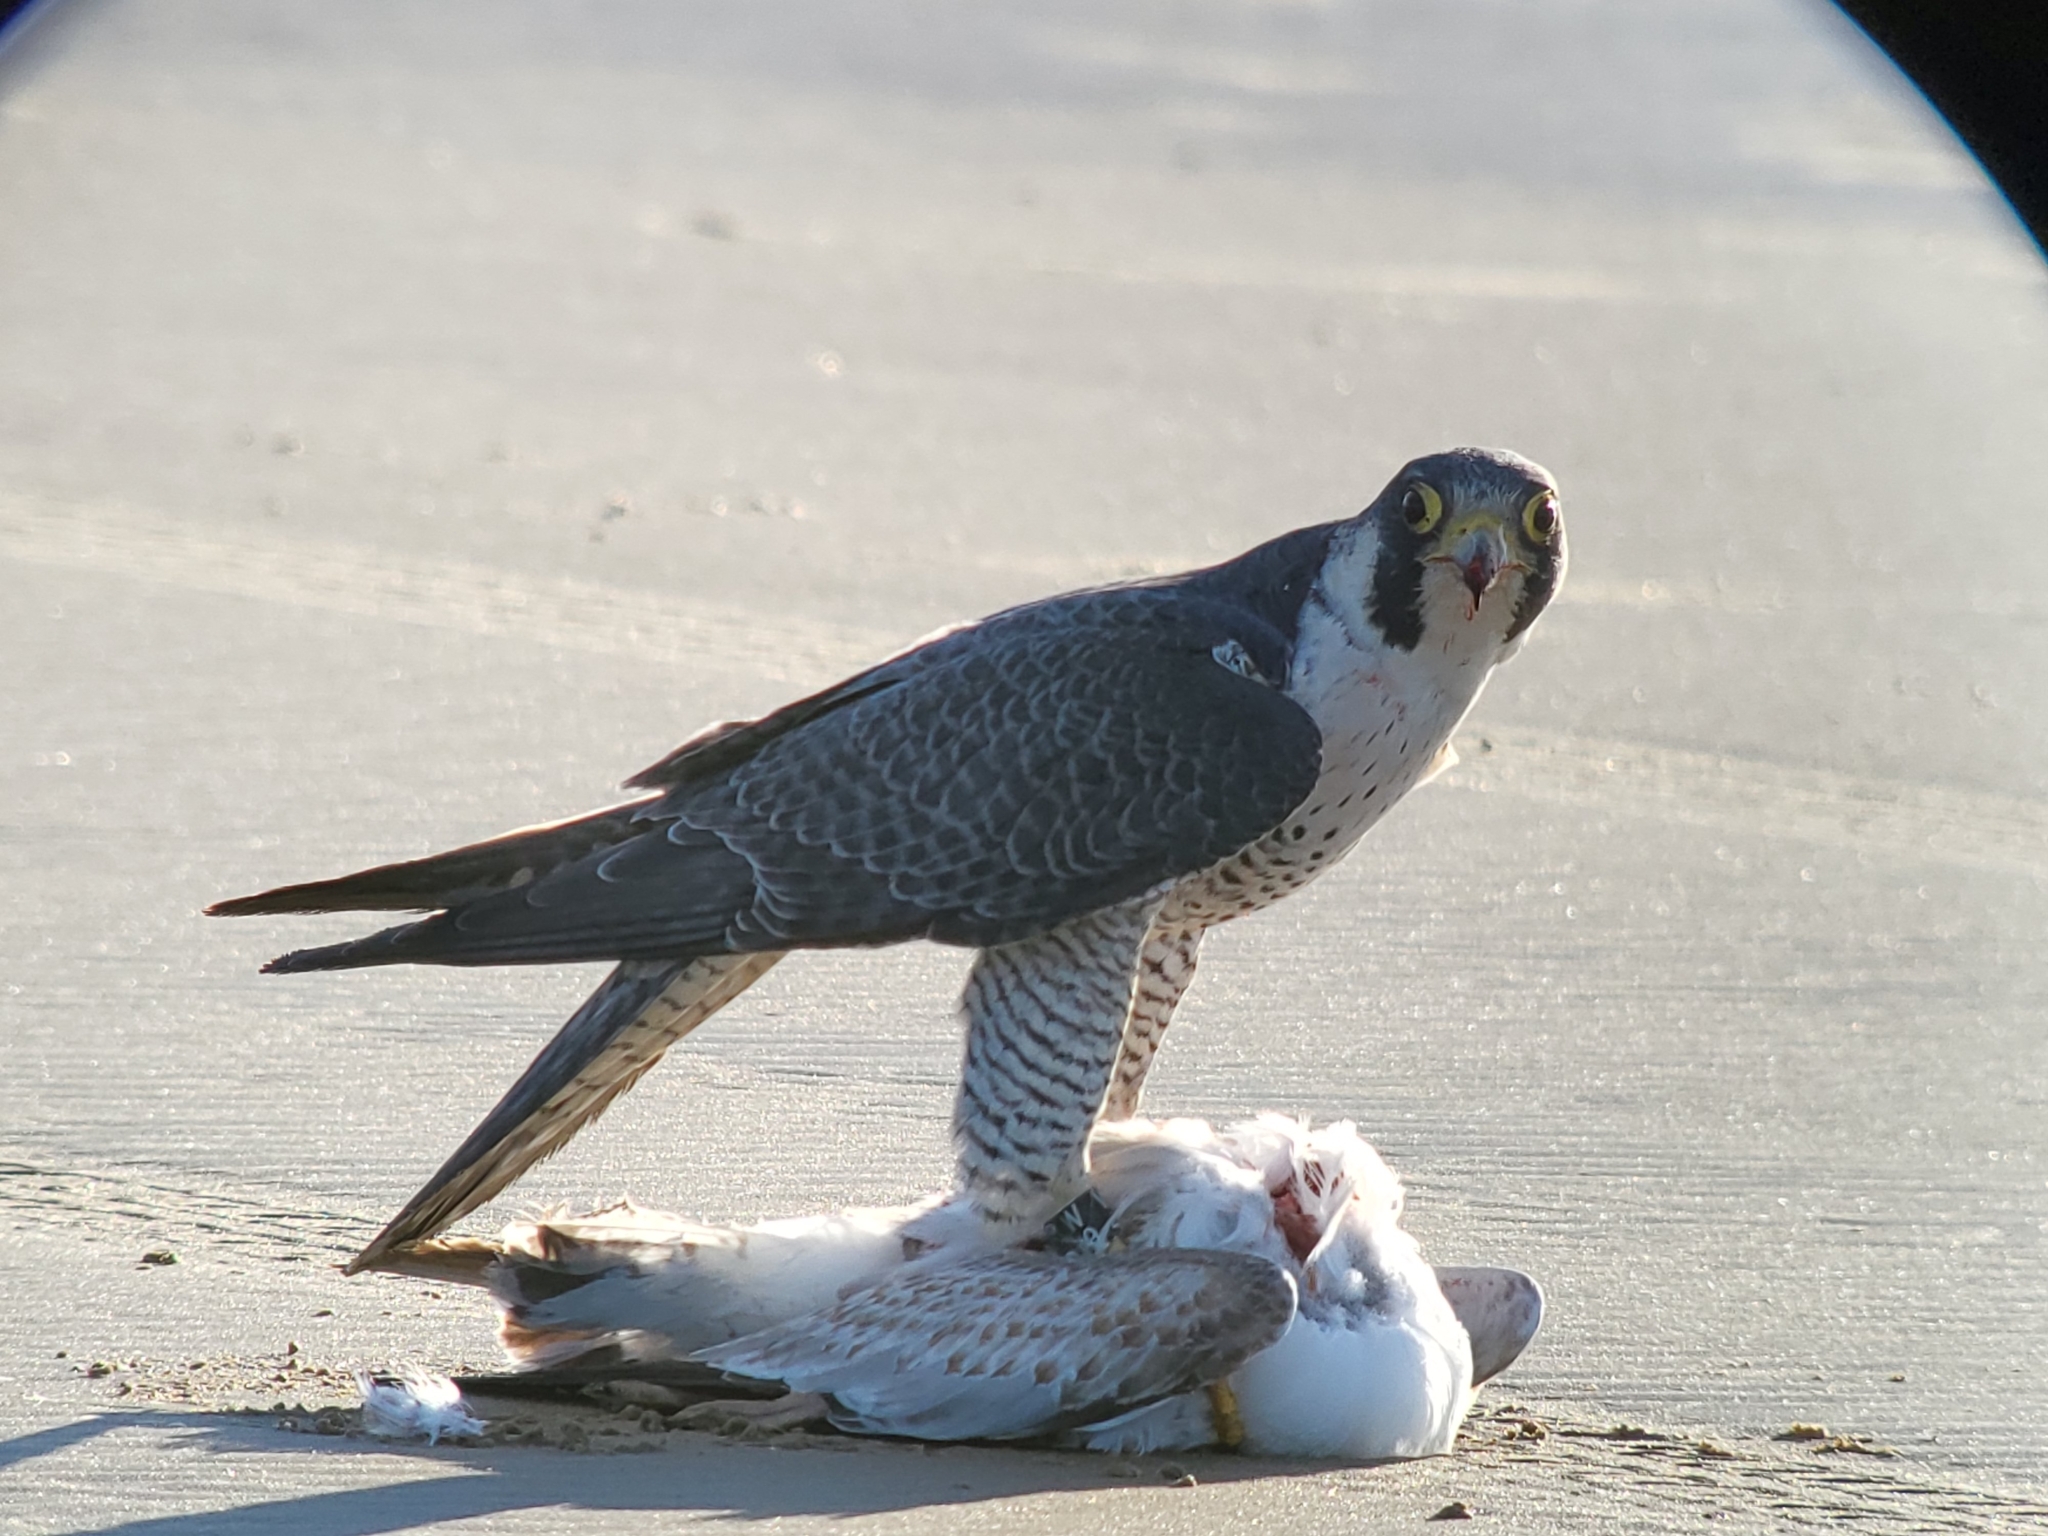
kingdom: Animalia
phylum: Chordata
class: Aves
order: Falconiformes
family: Falconidae
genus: Falco
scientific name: Falco peregrinus
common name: Peregrine falcon
